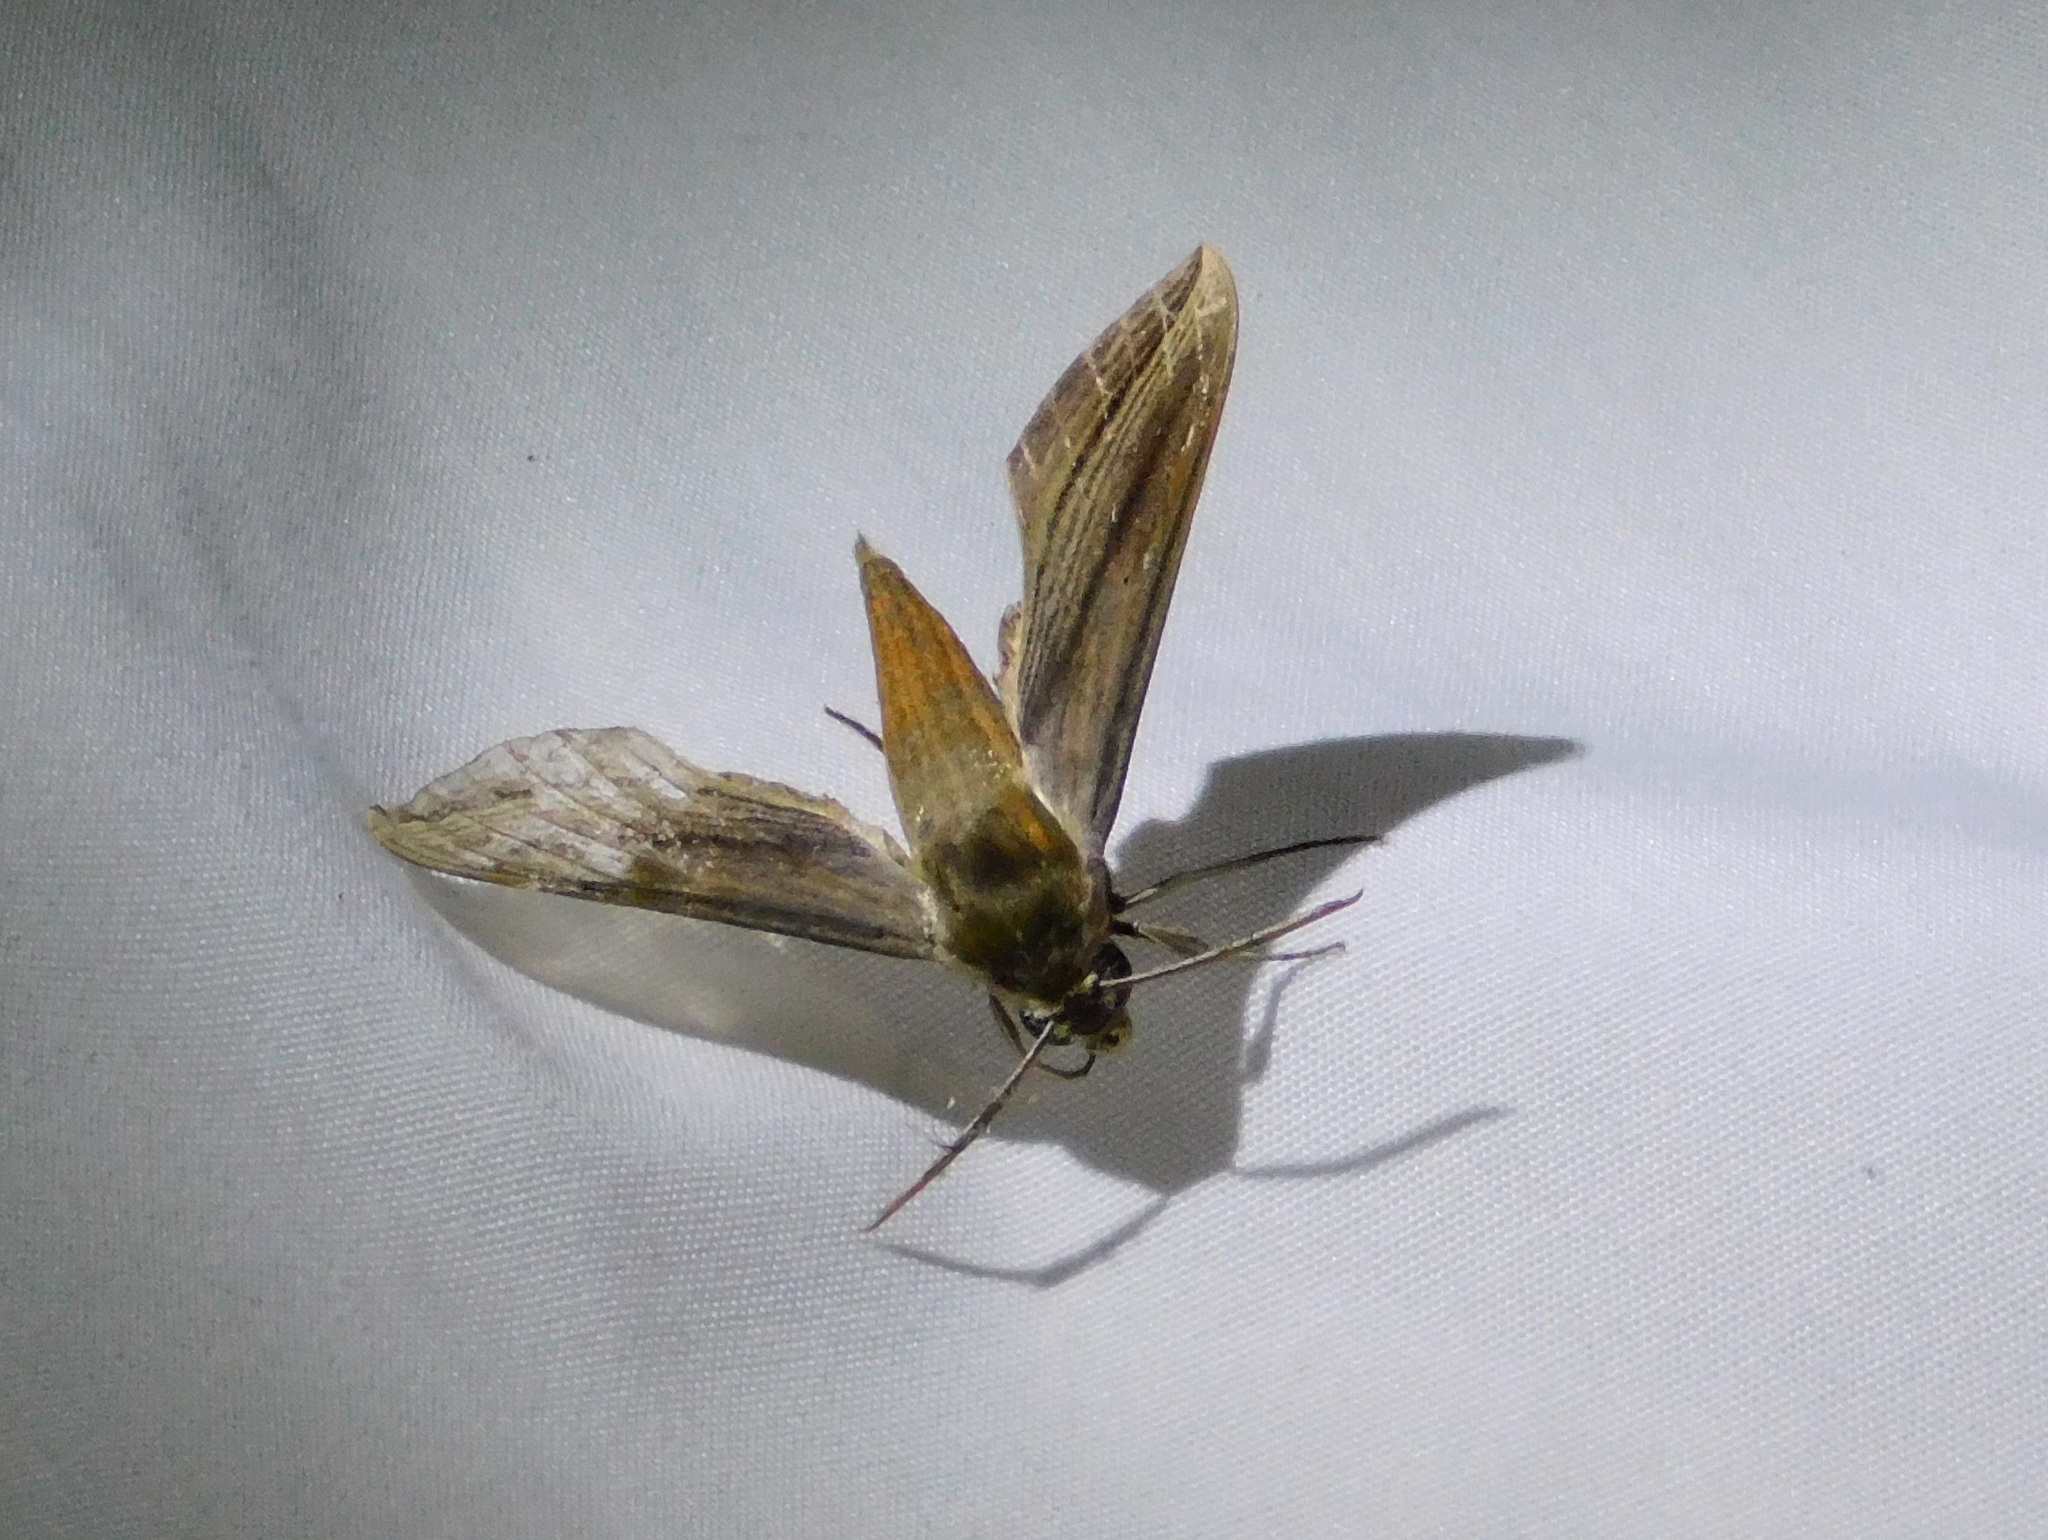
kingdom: Animalia
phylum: Arthropoda
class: Insecta
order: Lepidoptera
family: Sphingidae
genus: Xylophanes
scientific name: Xylophanes tersa
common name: Tersa sphinx
